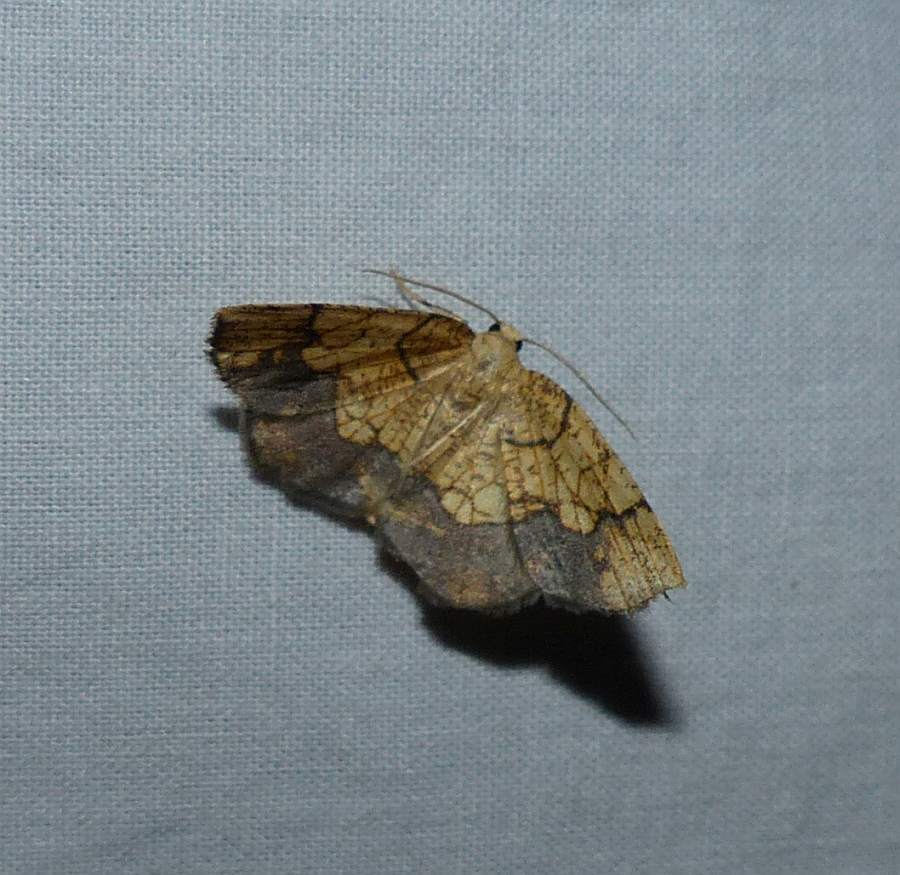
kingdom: Animalia
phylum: Arthropoda
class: Insecta
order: Lepidoptera
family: Geometridae
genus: Nematocampa
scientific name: Nematocampa resistaria
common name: Horned spanworm moth
